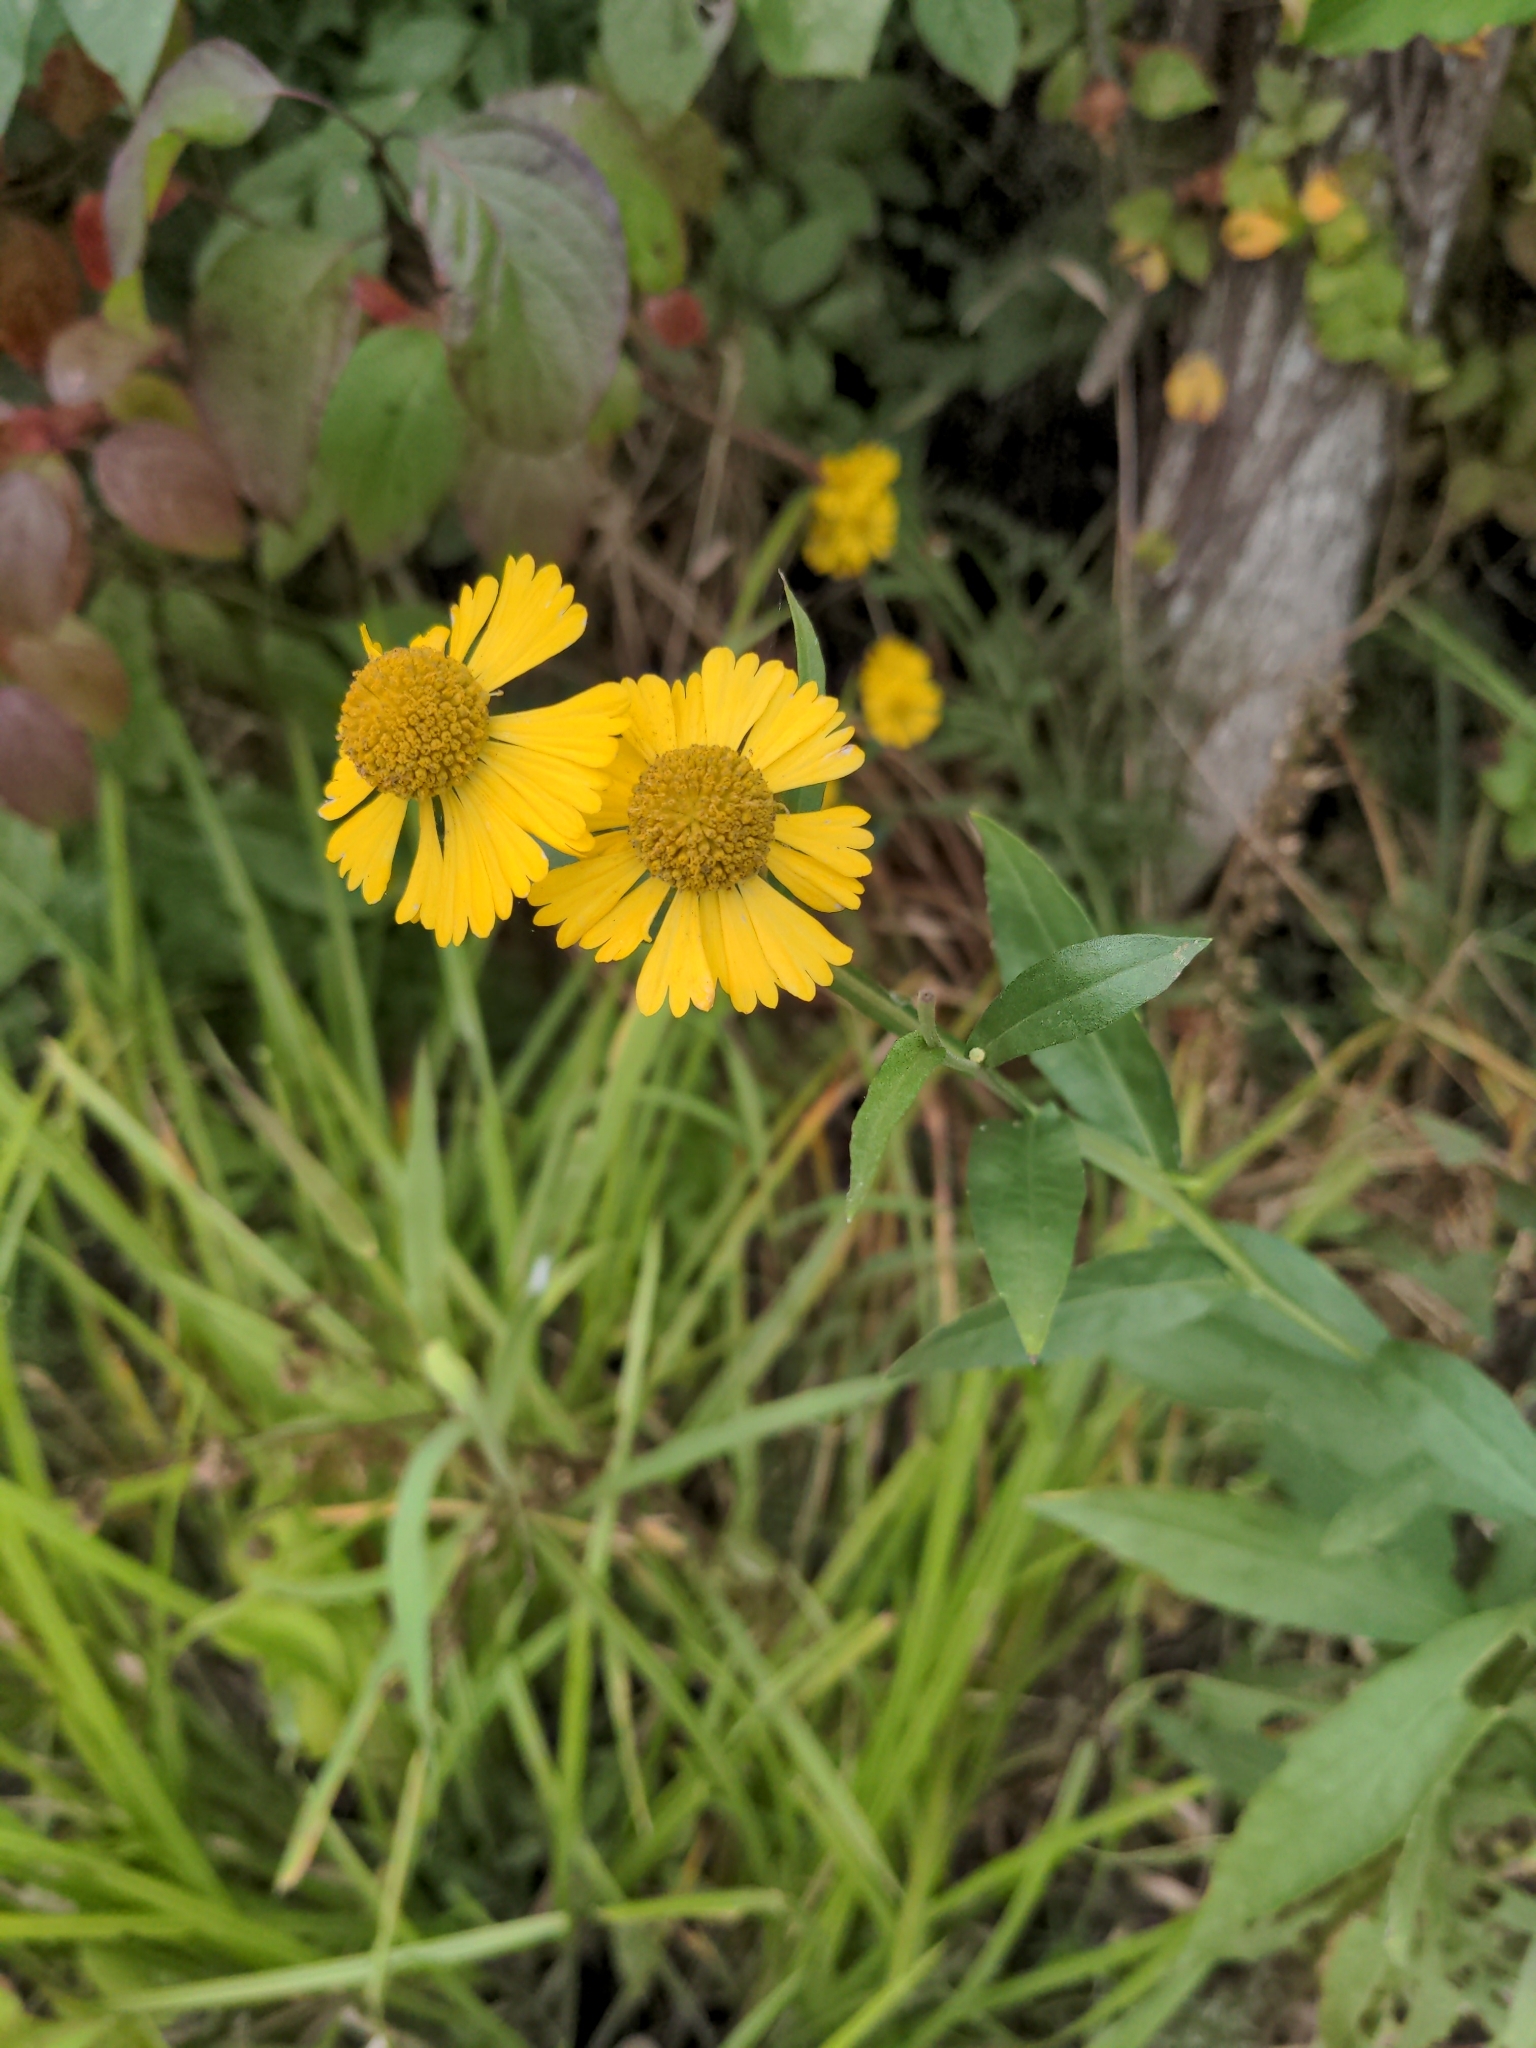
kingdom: Plantae
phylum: Tracheophyta
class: Magnoliopsida
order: Asterales
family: Asteraceae
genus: Helenium
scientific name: Helenium autumnale
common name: Sneezeweed
